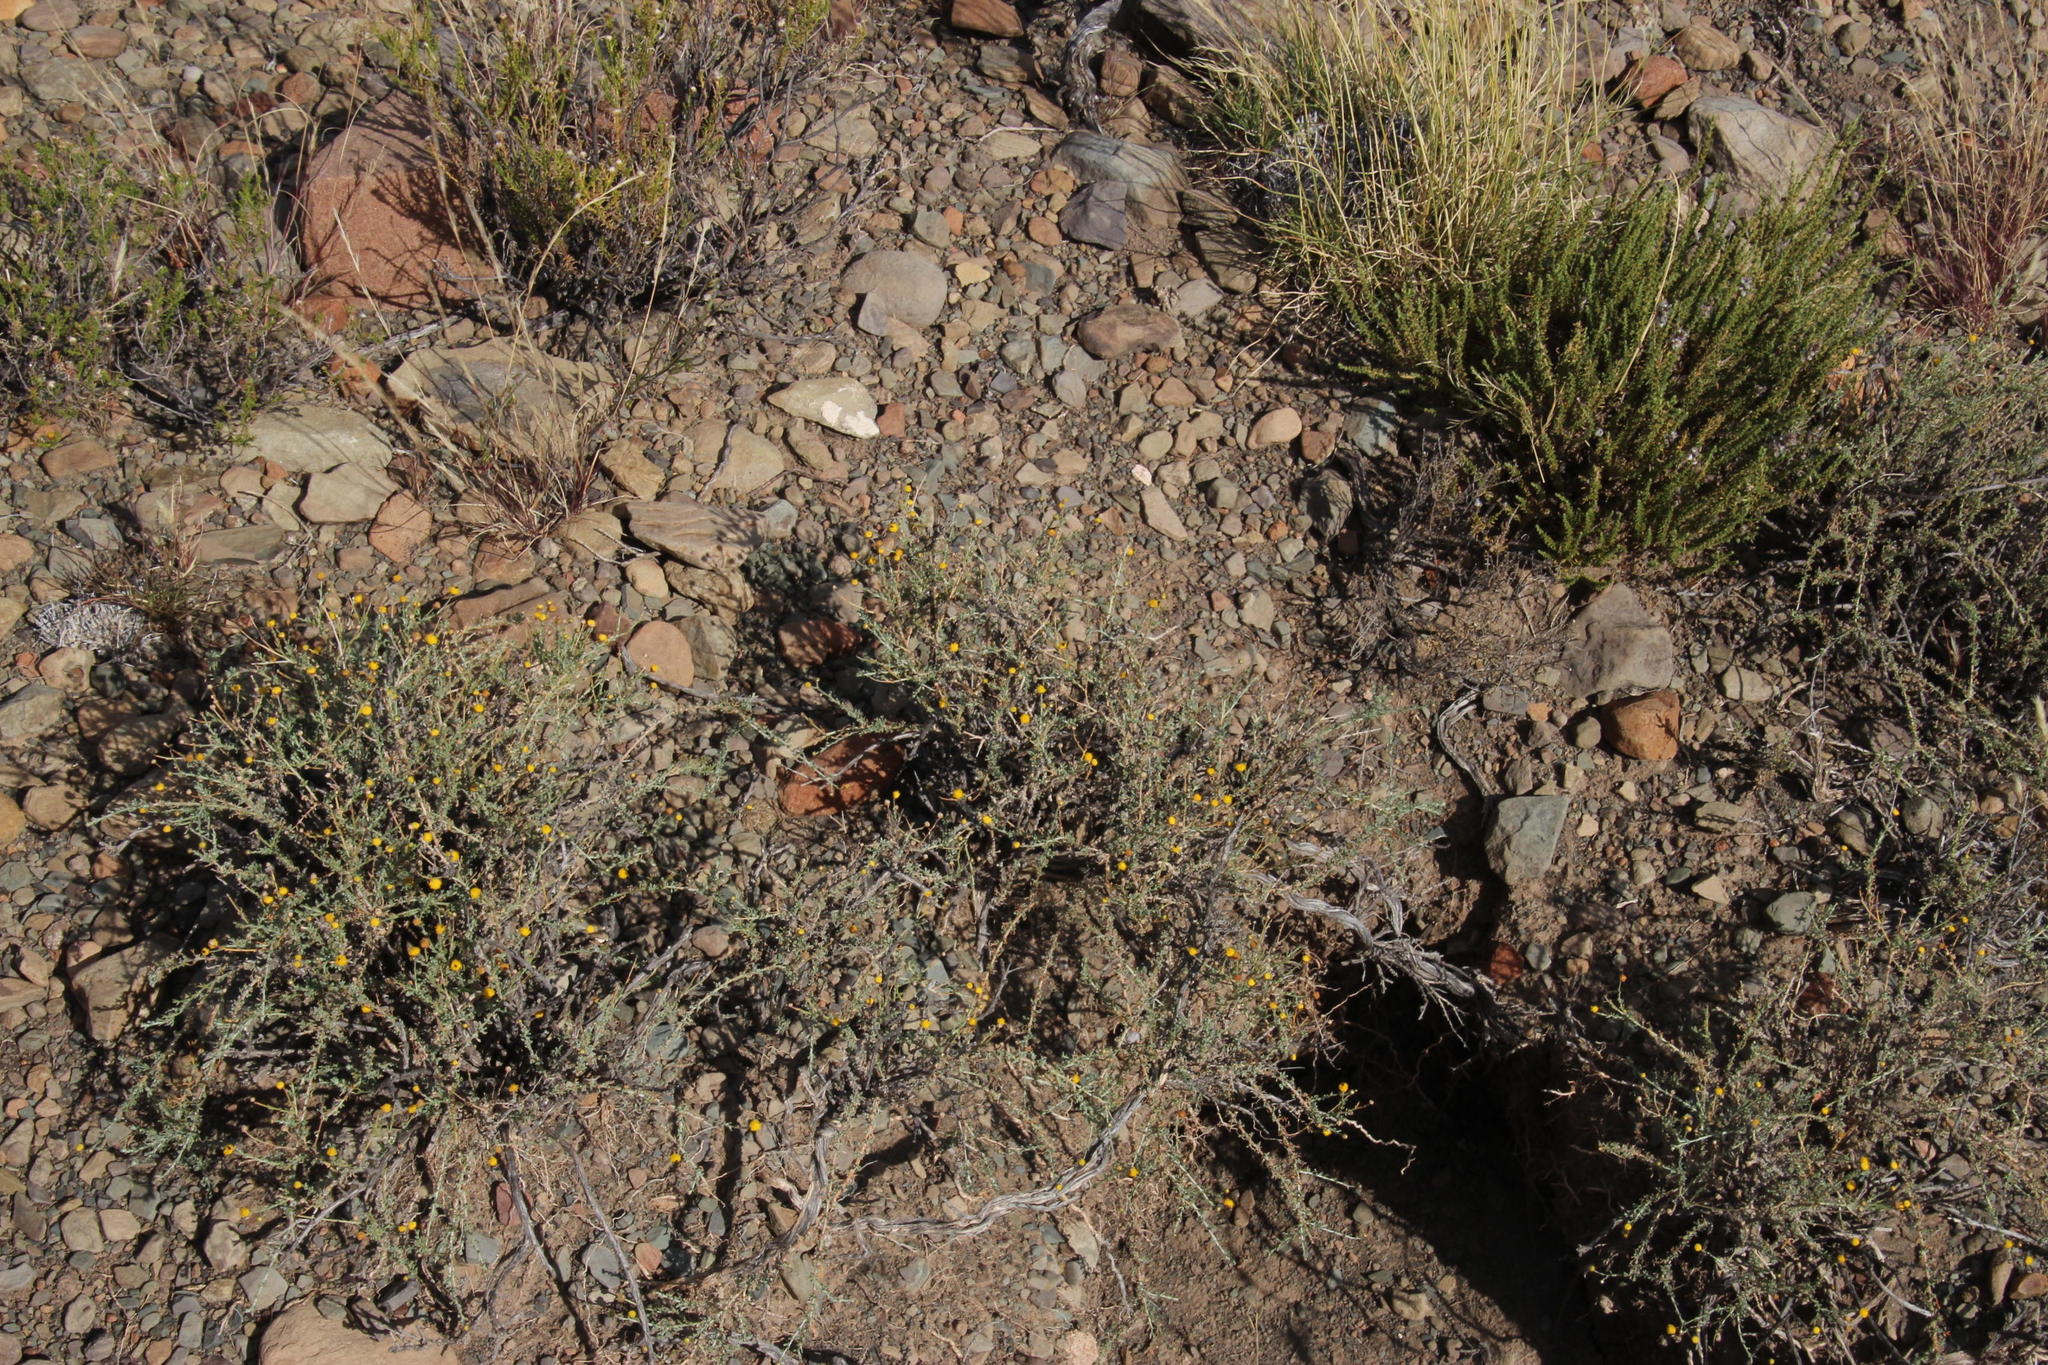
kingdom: Plantae
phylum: Tracheophyta
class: Magnoliopsida
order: Asterales
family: Asteraceae
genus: Pentzia
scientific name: Pentzia incana
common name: African sheepbush
